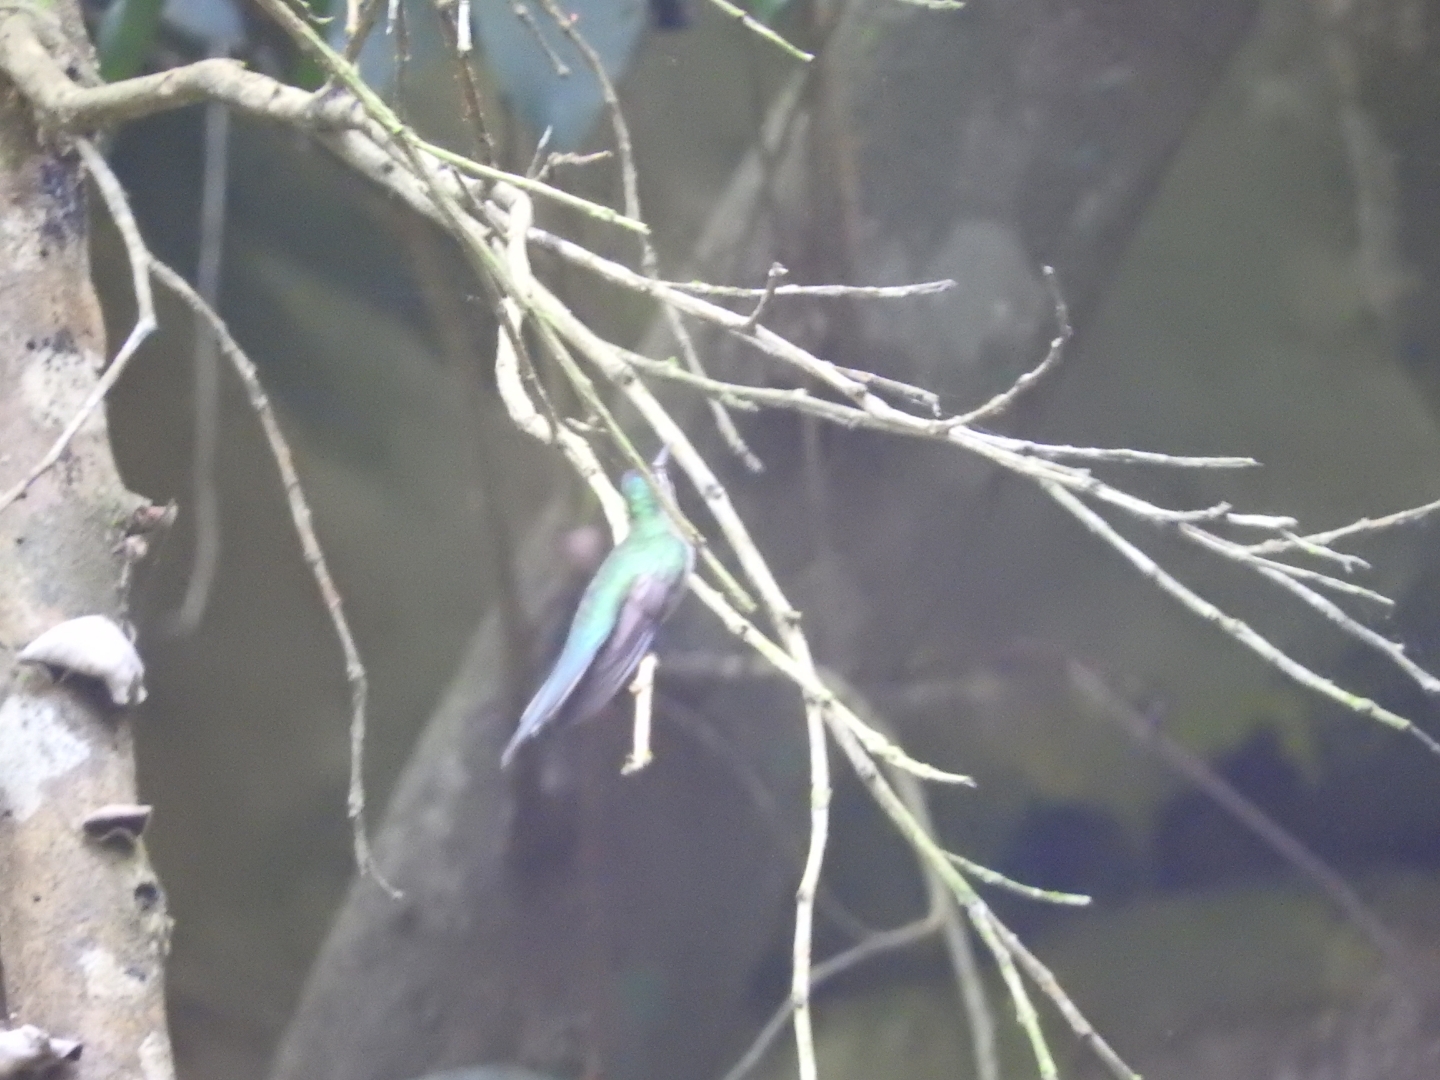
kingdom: Animalia
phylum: Chordata
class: Aves
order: Apodiformes
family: Trochilidae
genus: Pampa
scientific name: Pampa curvipennis
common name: Curve-winged sabrewing
